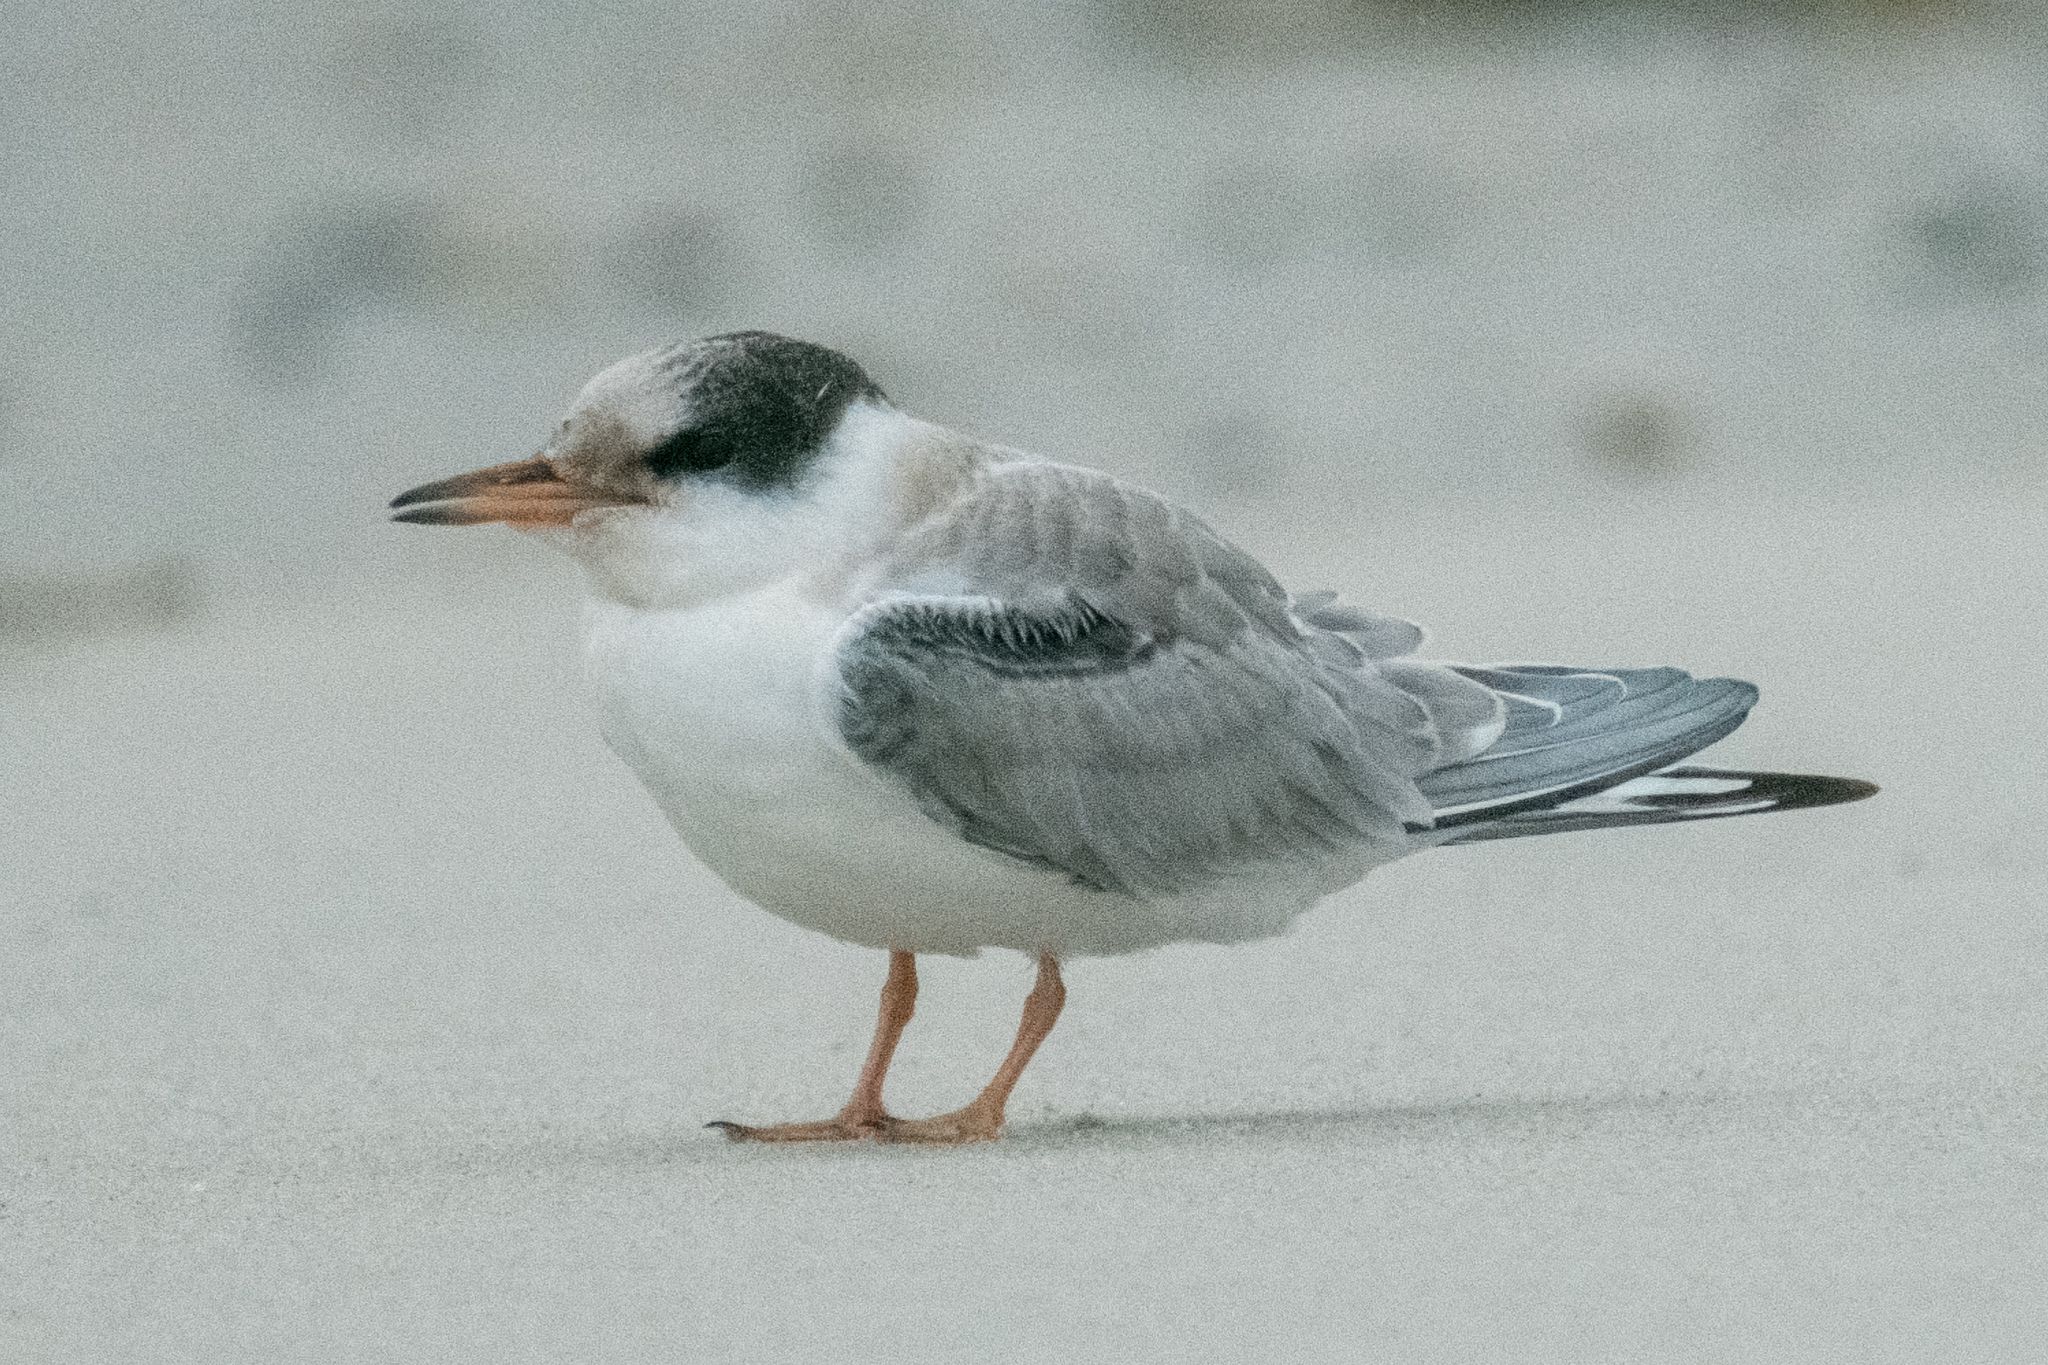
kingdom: Animalia
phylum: Chordata
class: Aves
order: Charadriiformes
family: Laridae
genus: Sterna
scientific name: Sterna hirundo
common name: Common tern
